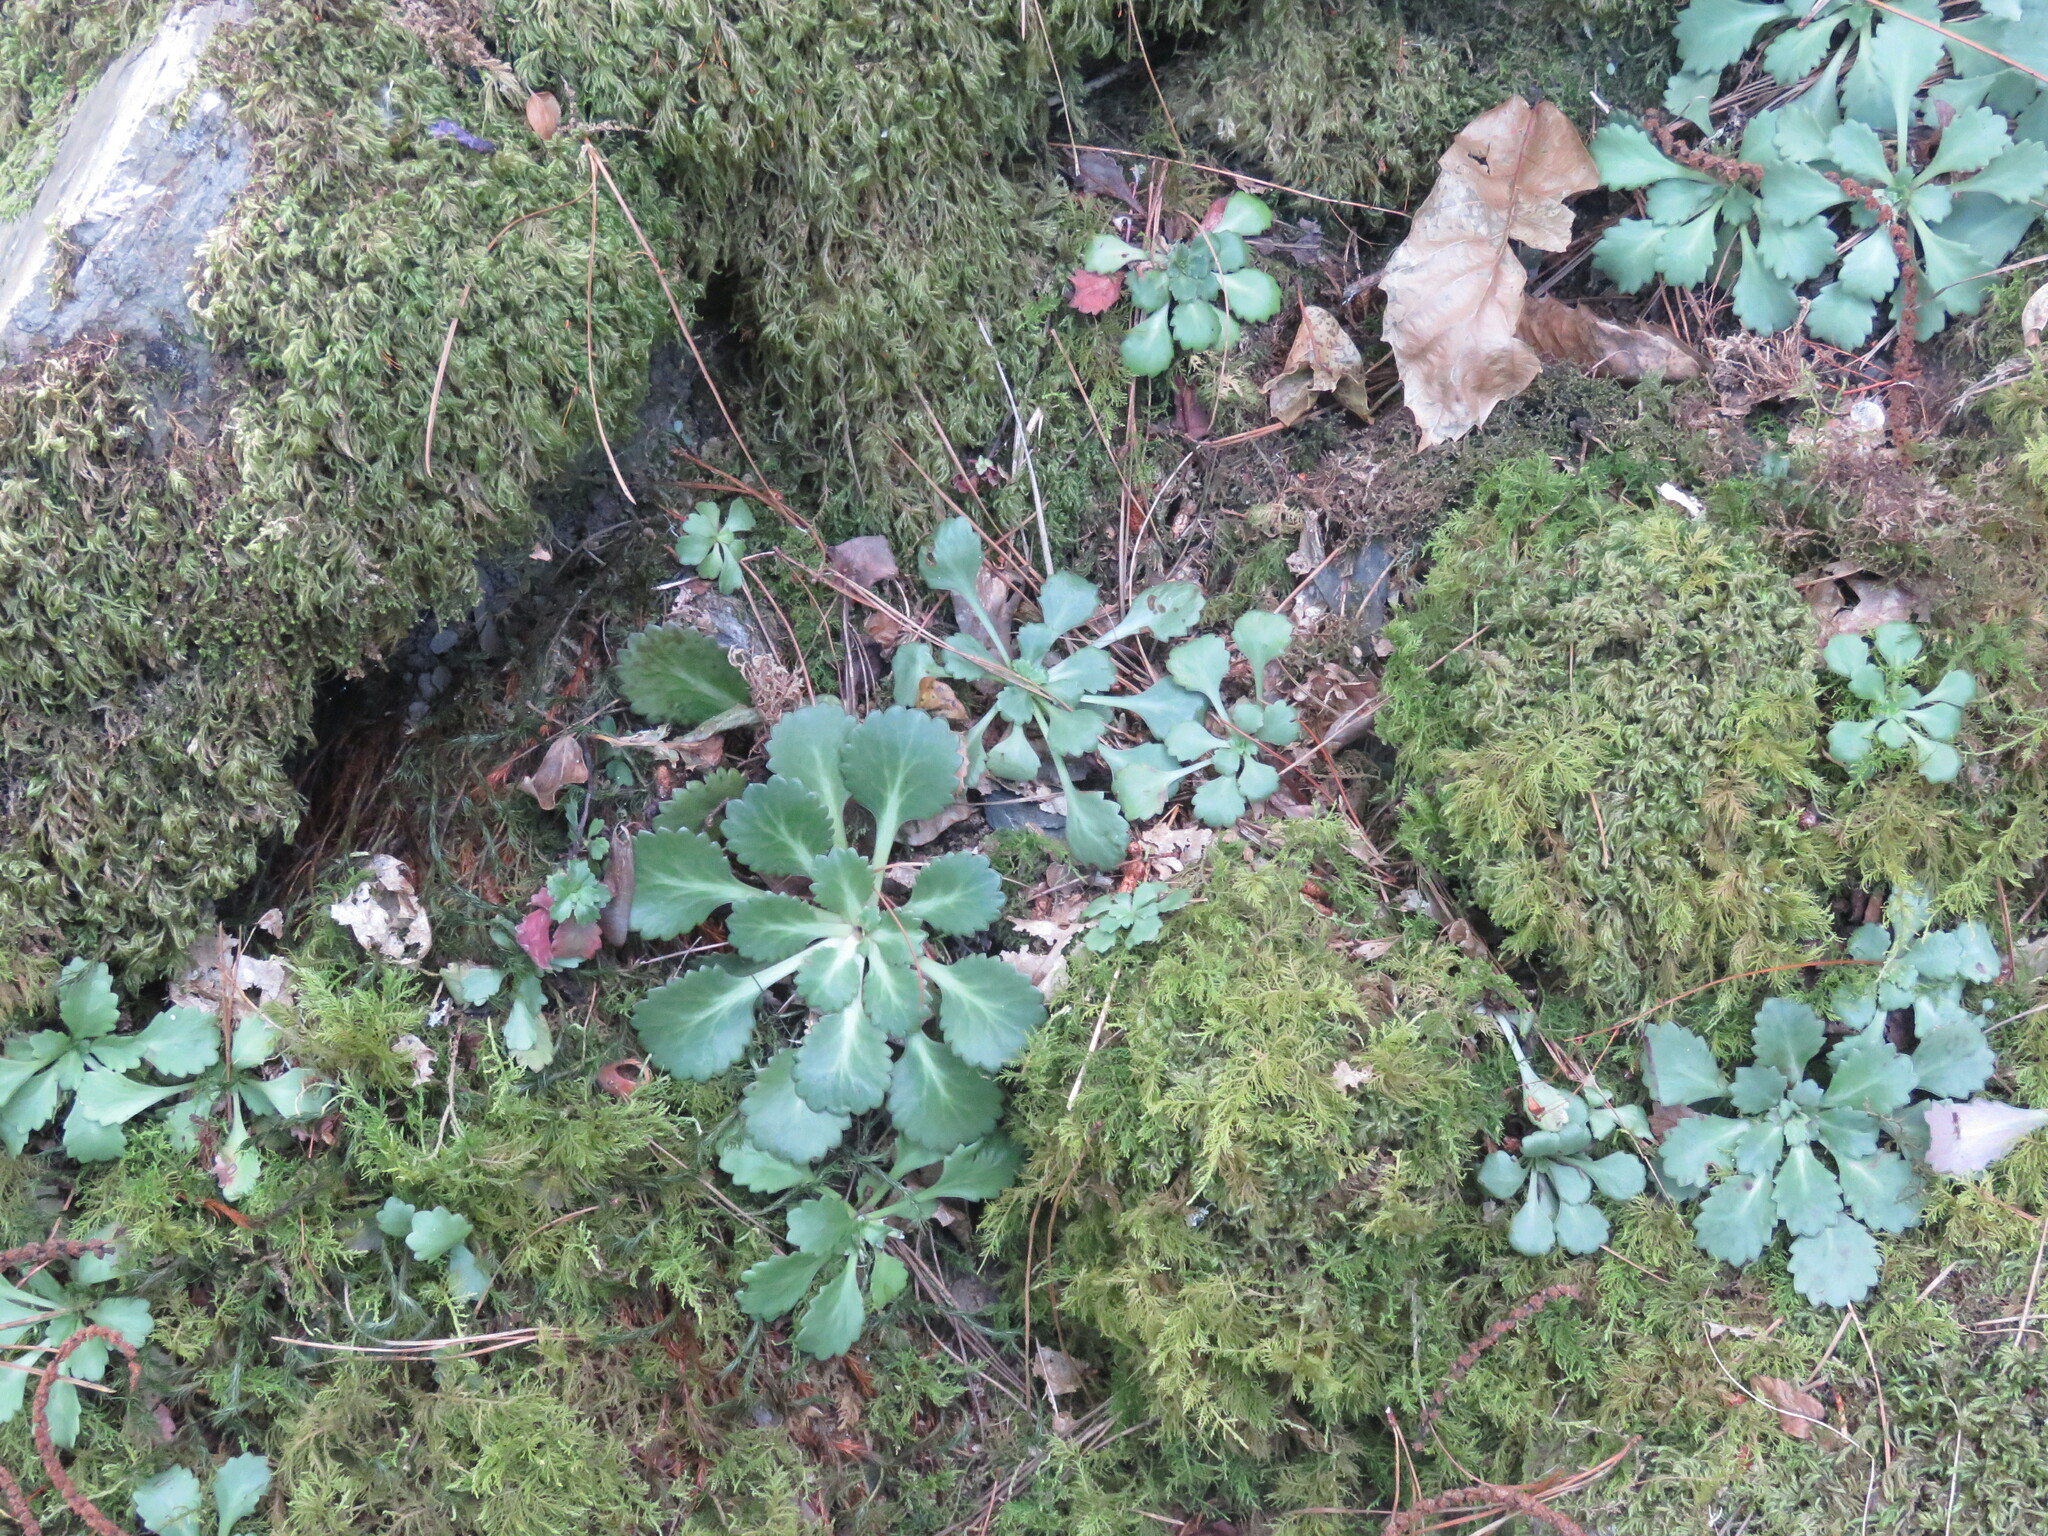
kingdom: Plantae
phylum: Tracheophyta
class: Magnoliopsida
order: Saxifragales
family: Saxifragaceae
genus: Saxifraga
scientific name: Saxifraga spathularis
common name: St patrick's-cabbage
